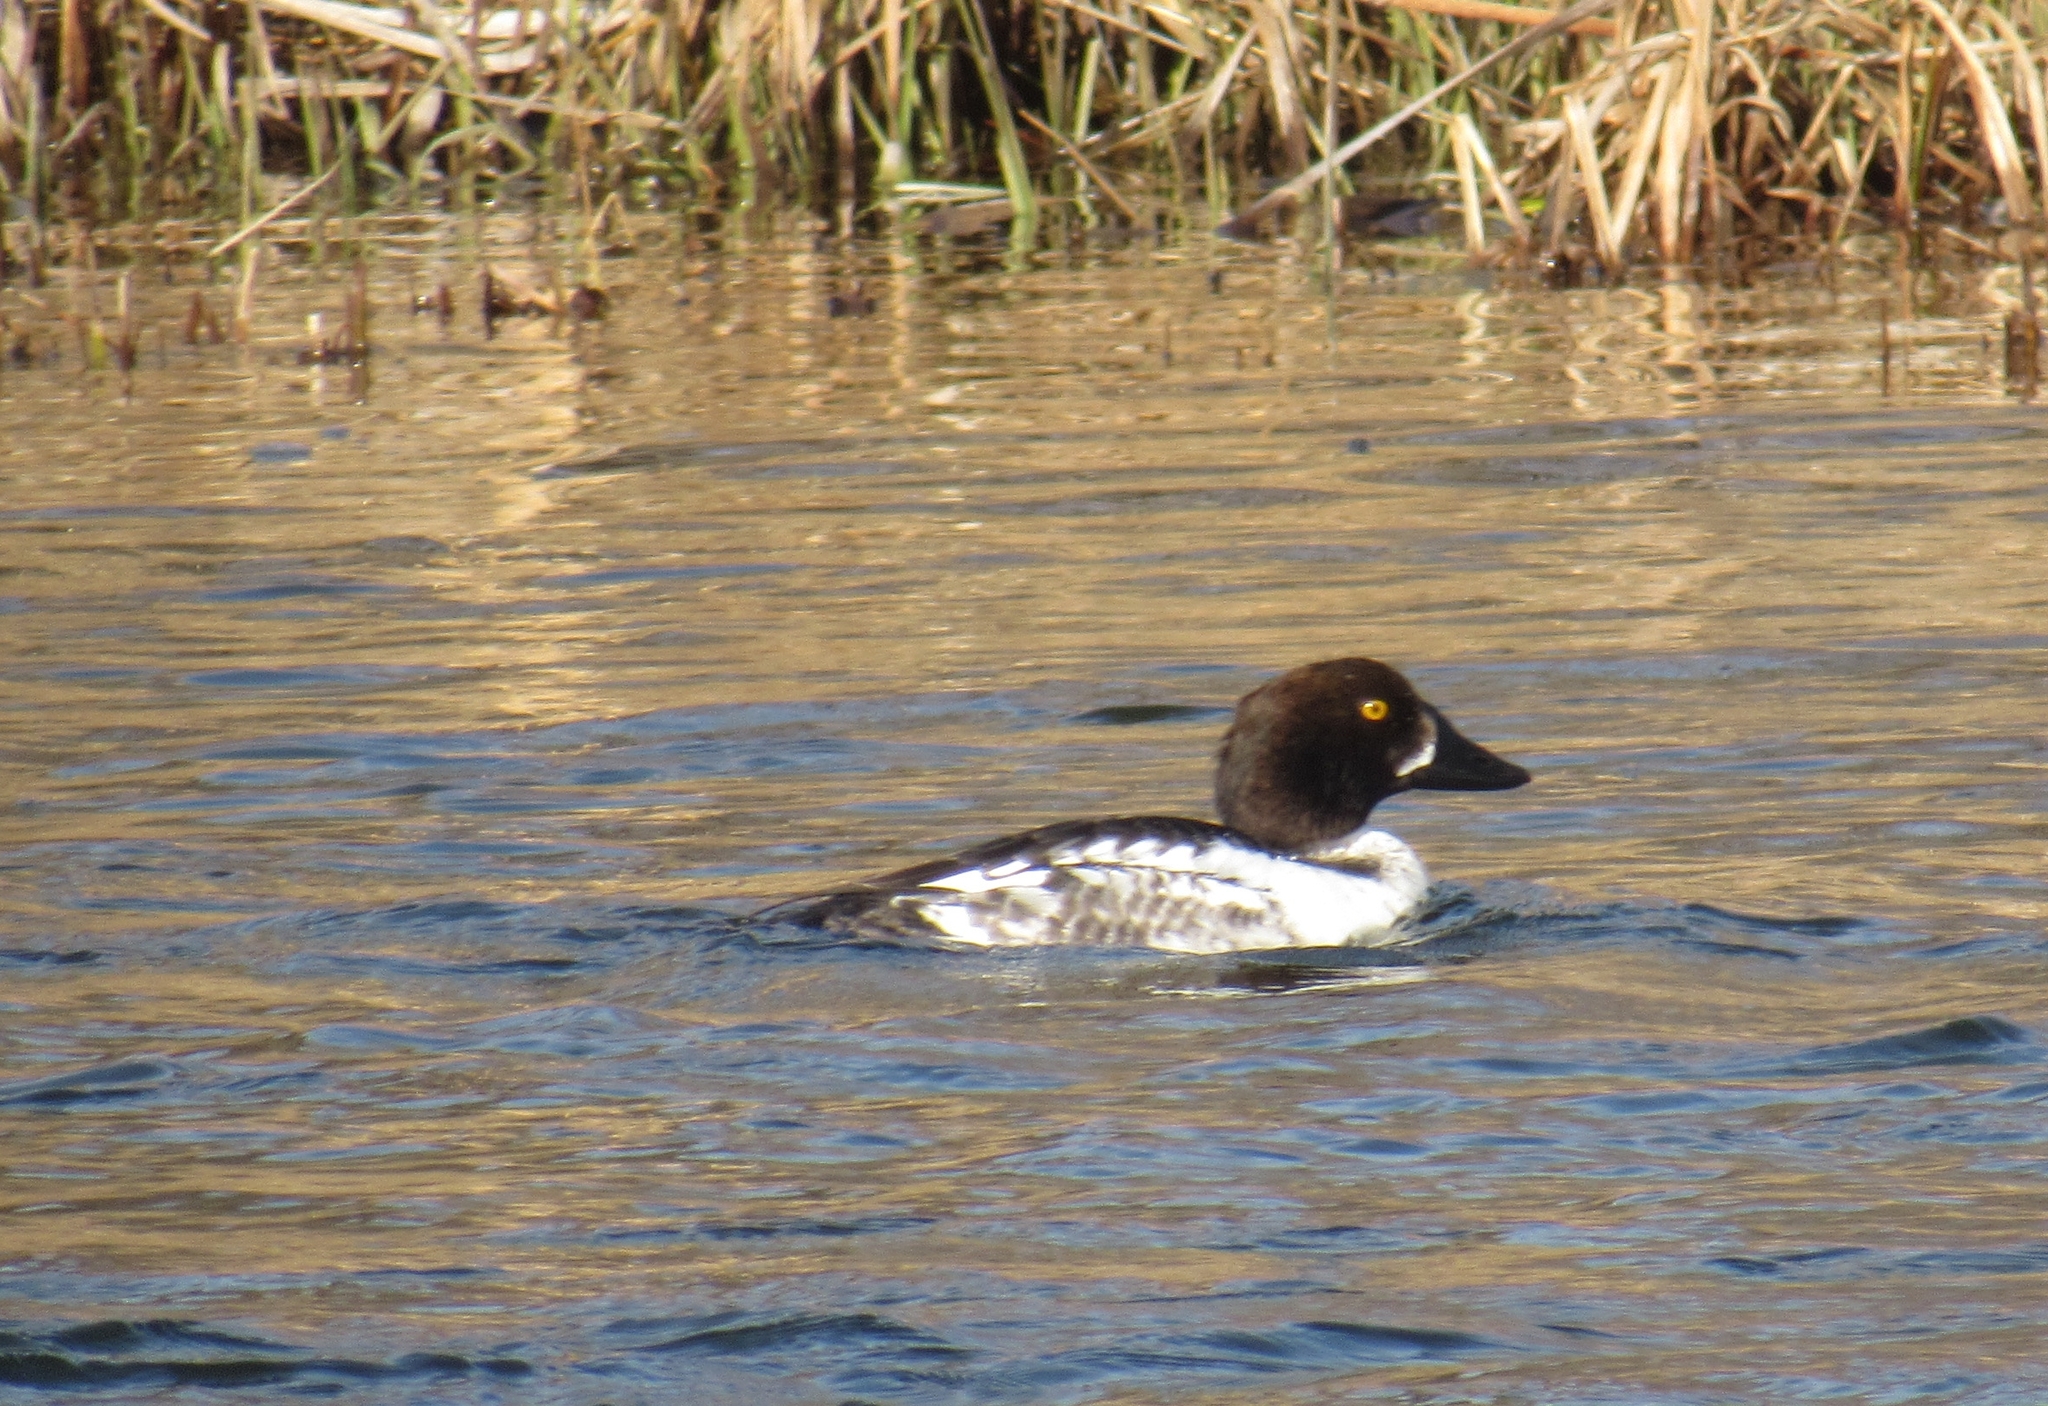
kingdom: Animalia
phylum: Chordata
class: Aves
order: Anseriformes
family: Anatidae
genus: Bucephala
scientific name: Bucephala clangula
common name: Common goldeneye
